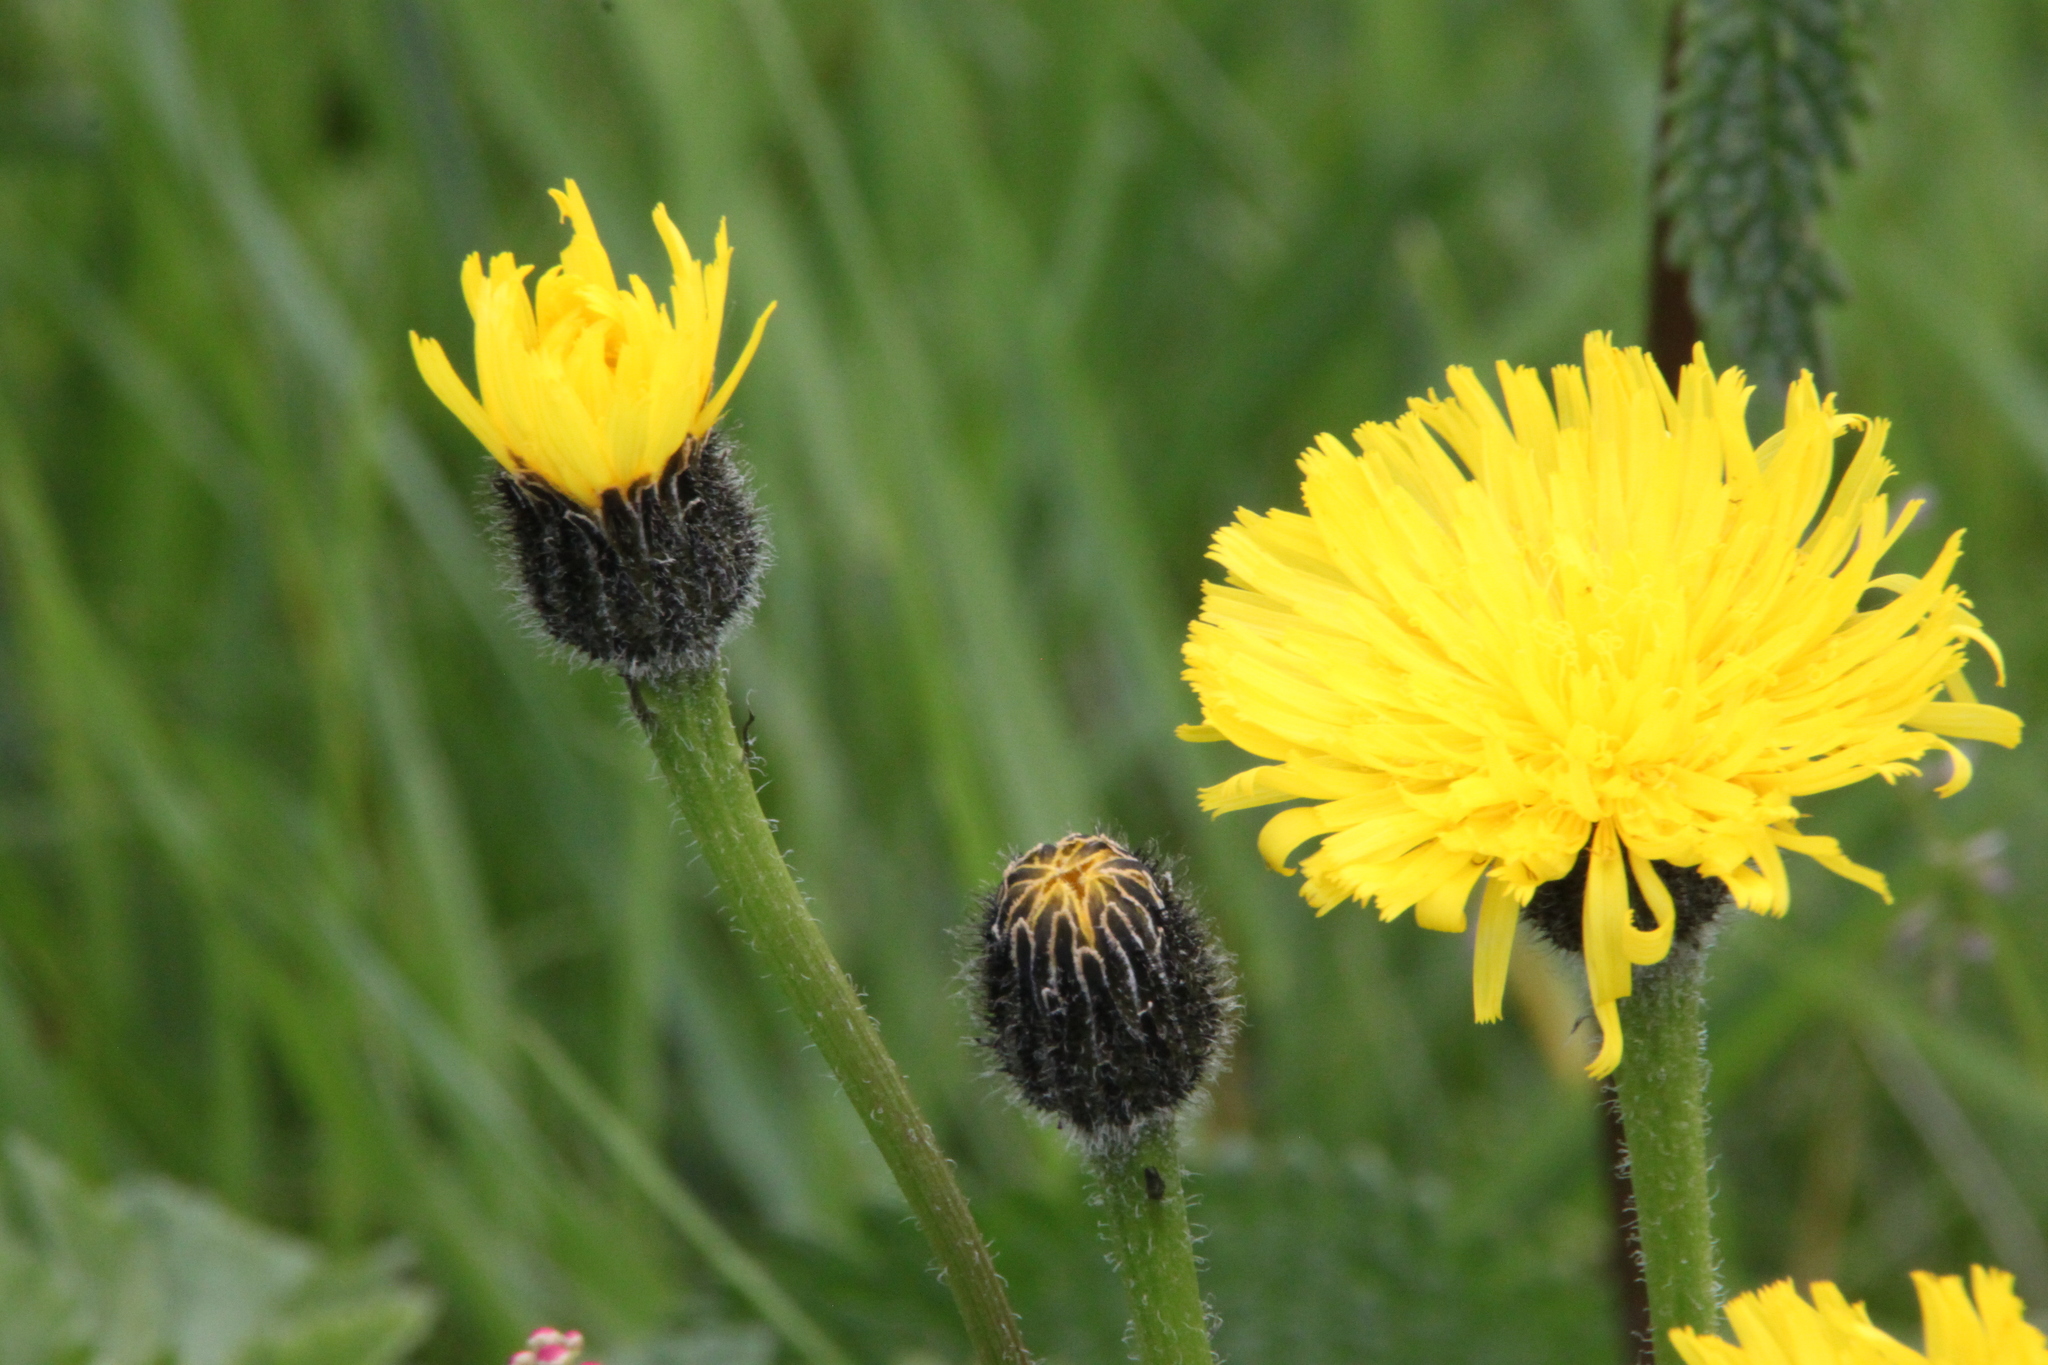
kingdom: Plantae
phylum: Tracheophyta
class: Magnoliopsida
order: Asterales
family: Asteraceae
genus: Trommsdorffia
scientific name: Trommsdorffia maculata
